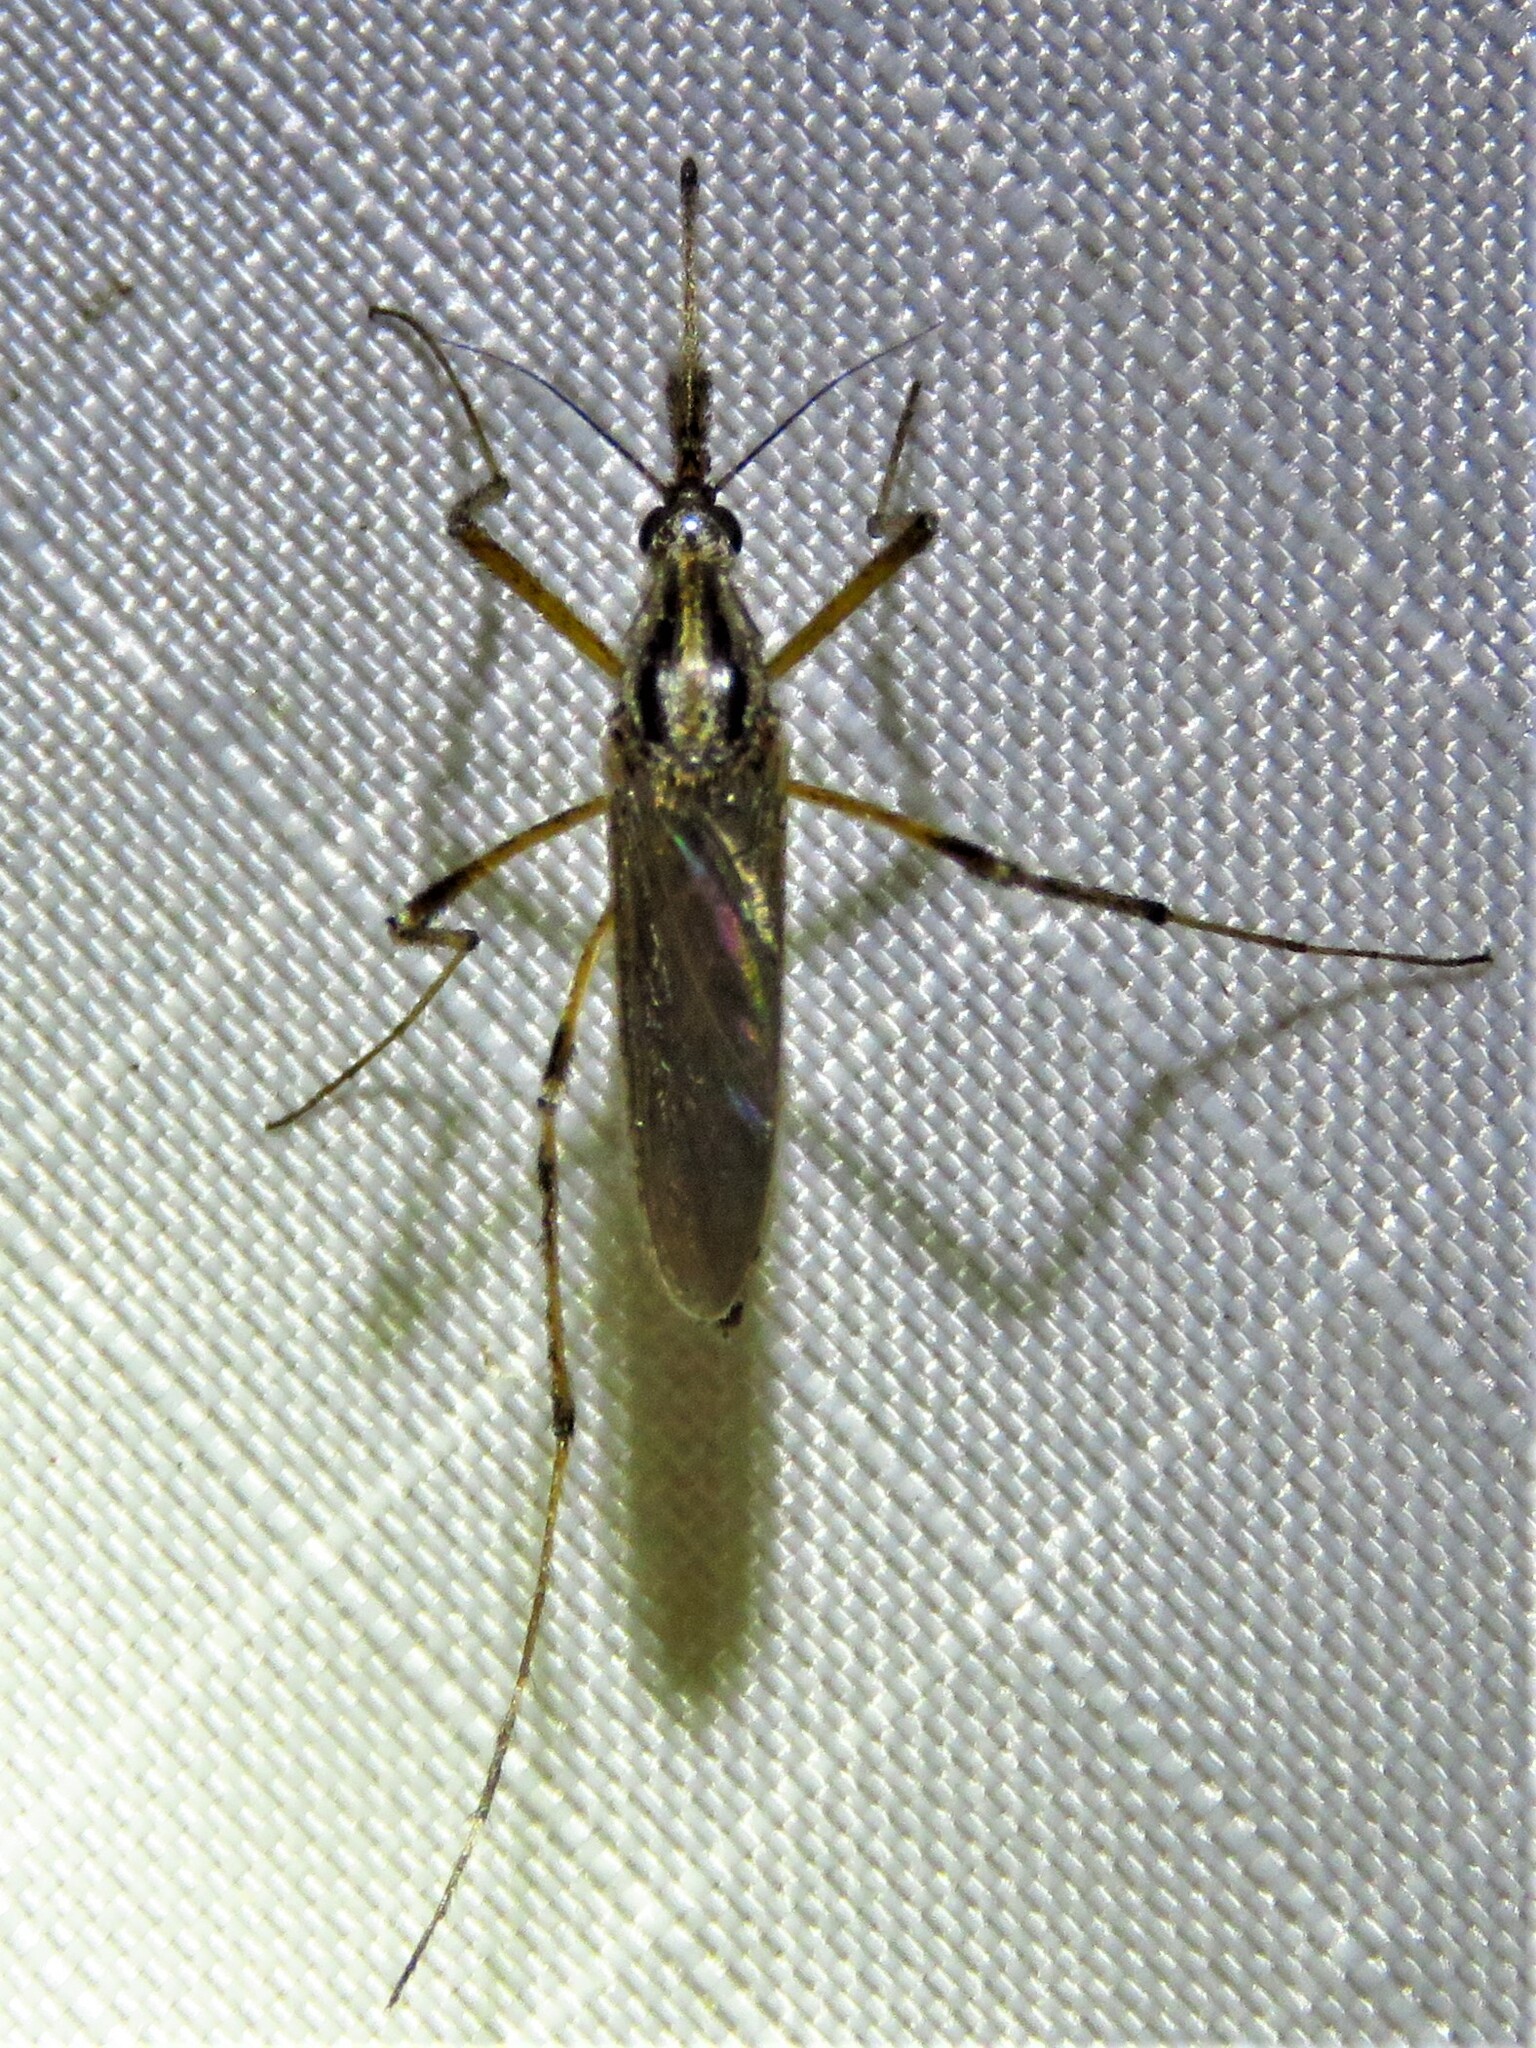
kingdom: Animalia
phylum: Arthropoda
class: Insecta
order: Diptera
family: Culicidae
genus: Psorophora
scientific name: Psorophora ciliata
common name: Gallinipper
